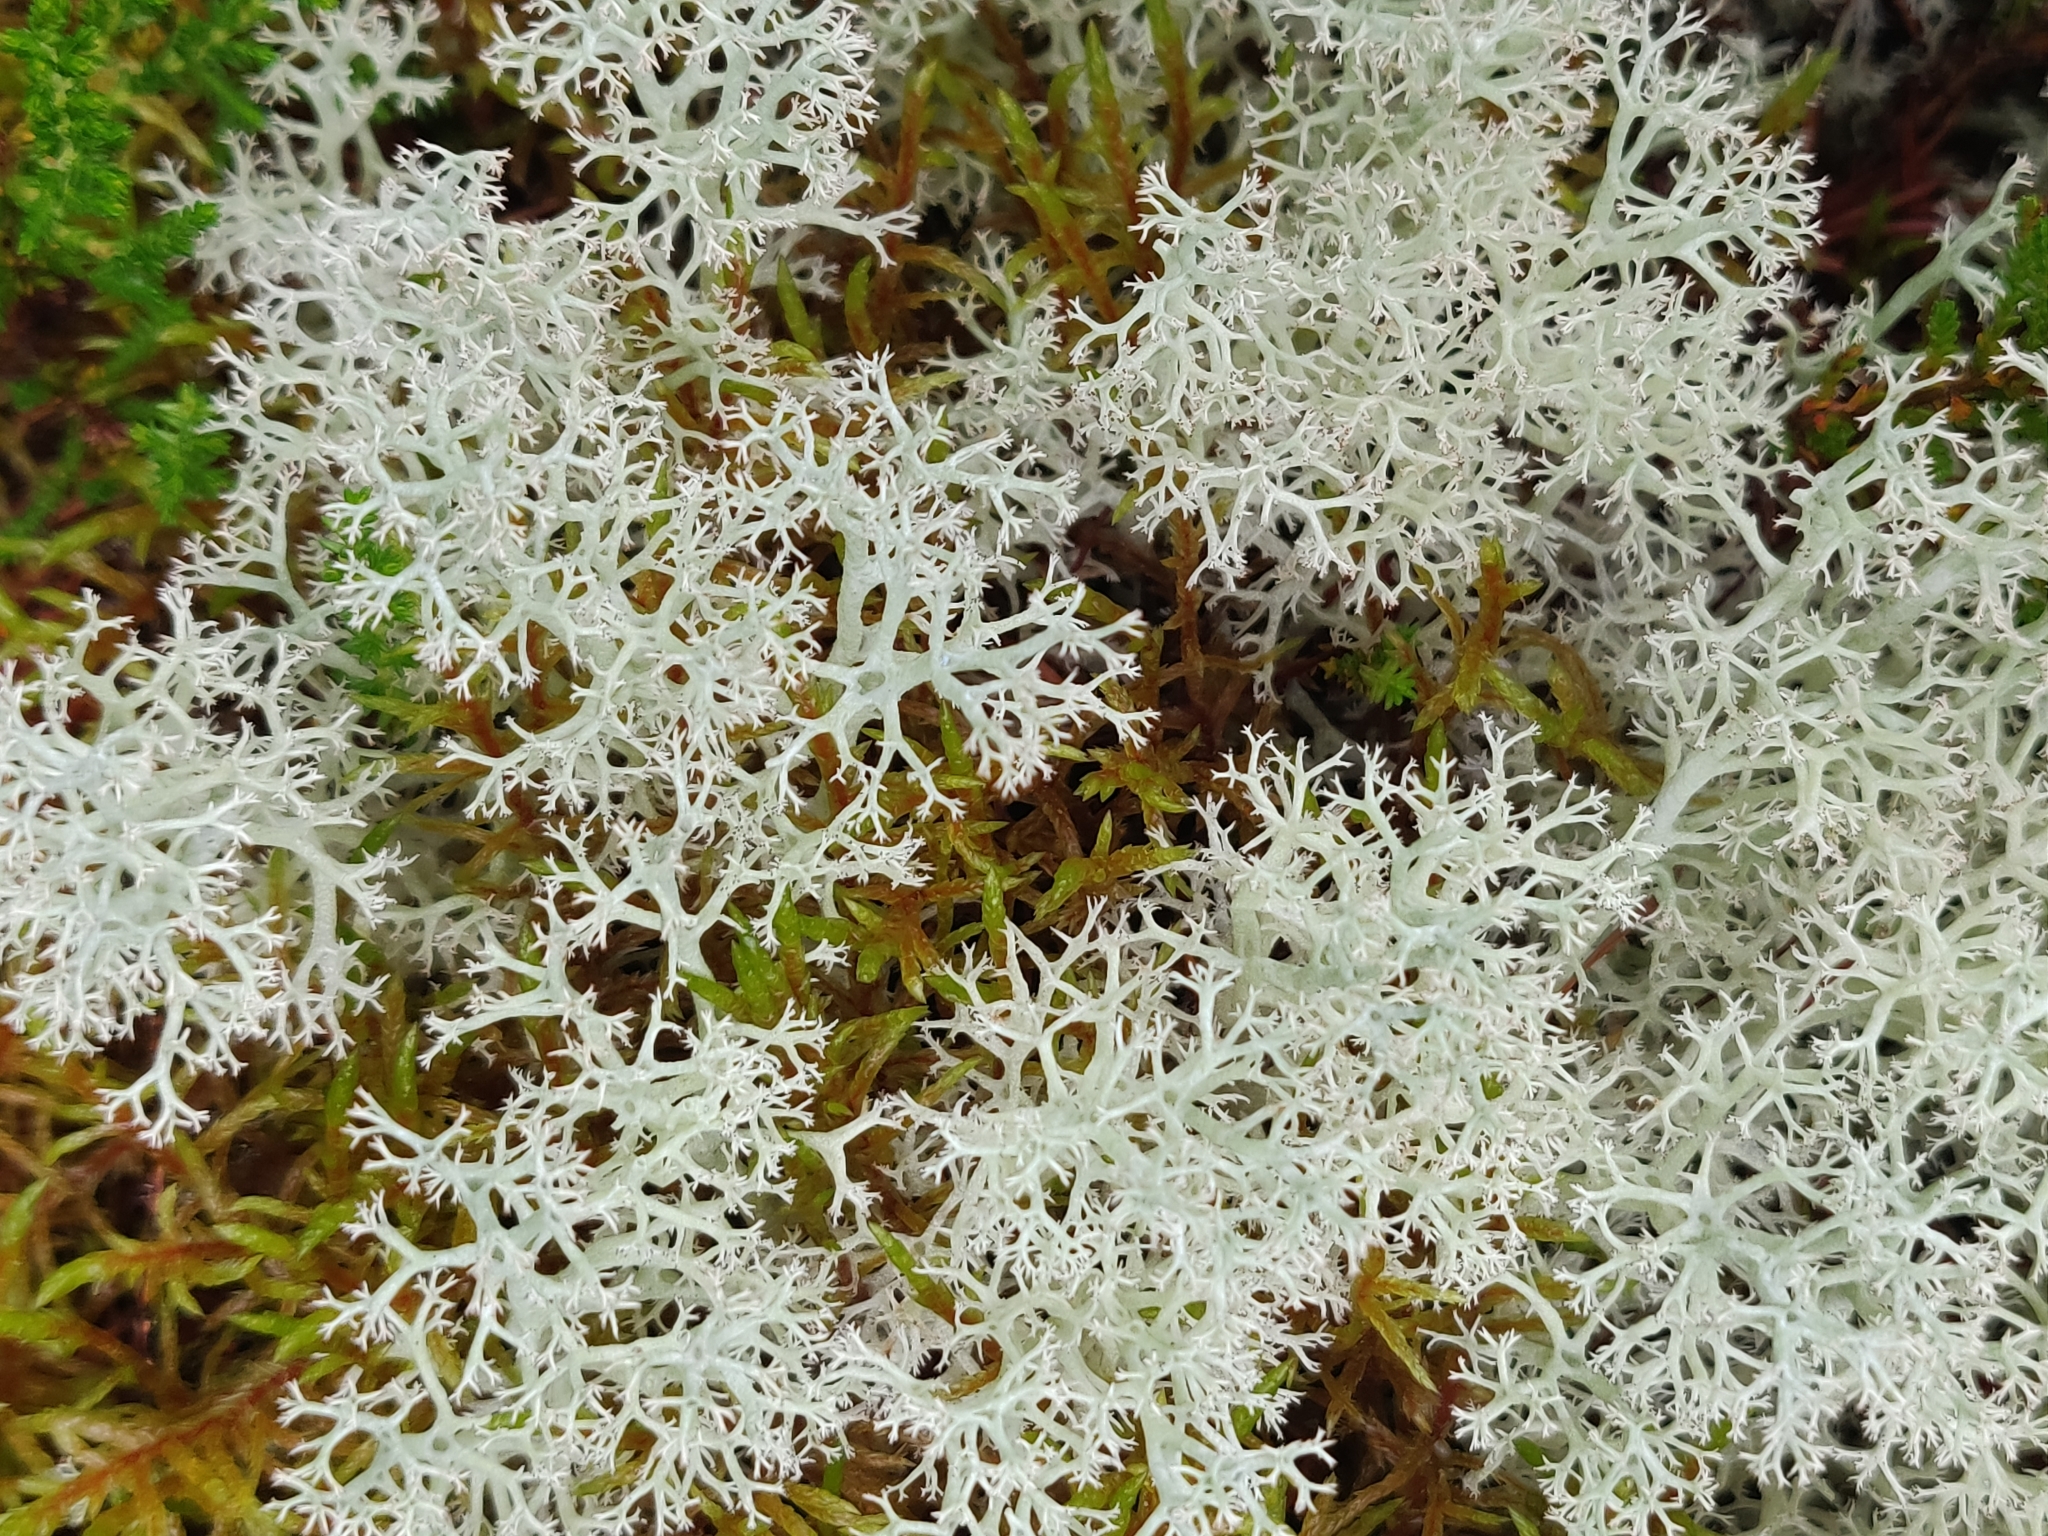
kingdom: Fungi
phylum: Ascomycota
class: Lecanoromycetes
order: Lecanorales
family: Cladoniaceae
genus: Cladonia
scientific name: Cladonia portentosa
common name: Reindeer lichen
